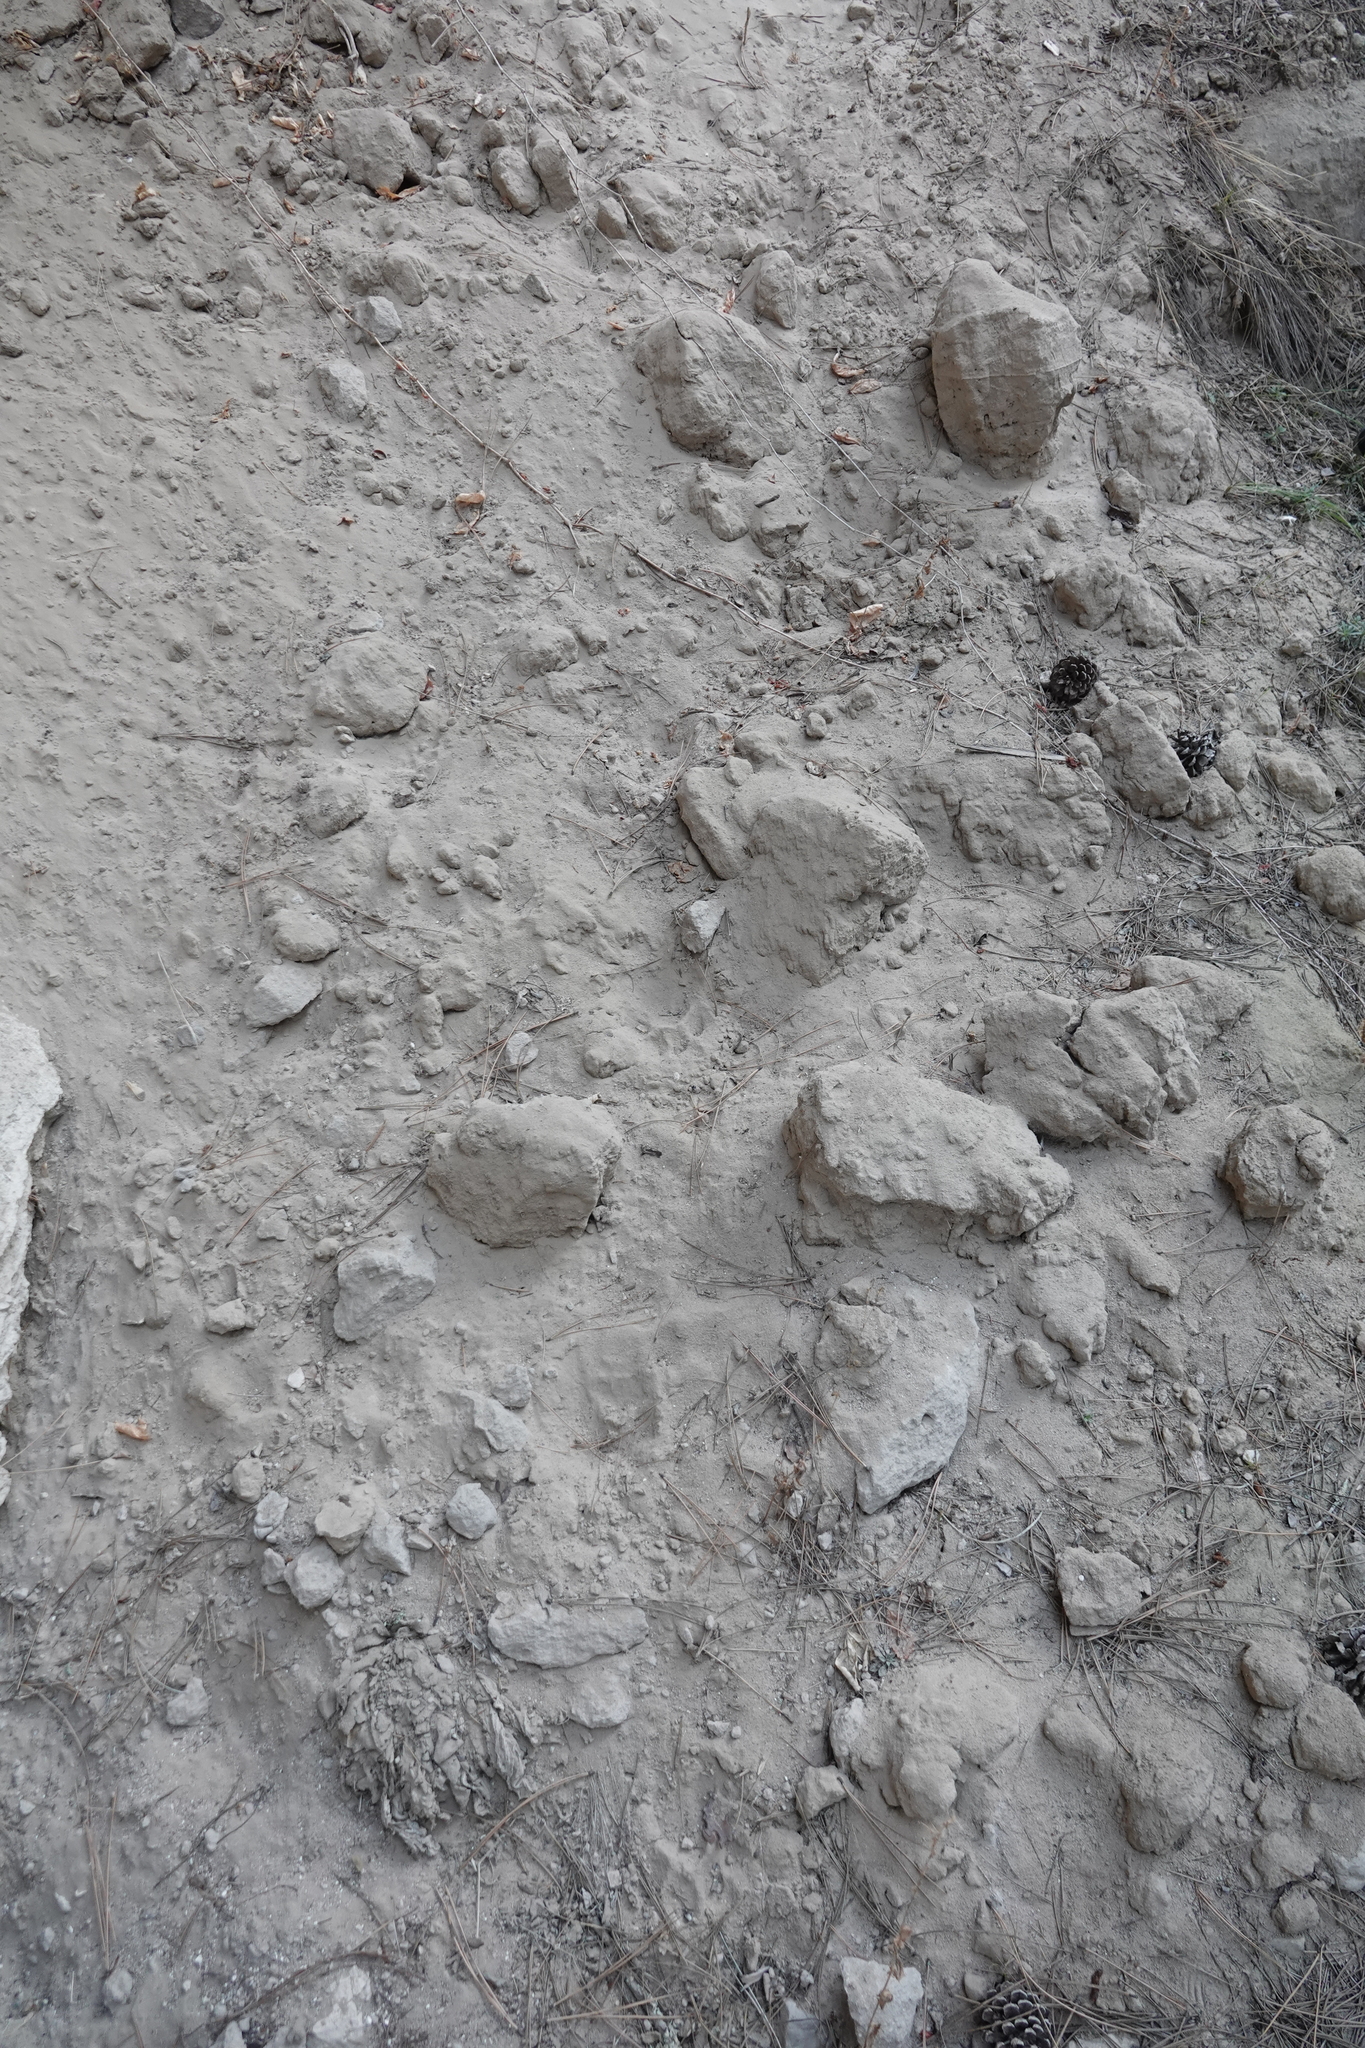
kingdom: Animalia
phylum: Chordata
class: Mammalia
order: Carnivora
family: Felidae
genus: Puma
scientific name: Puma concolor
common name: Puma
